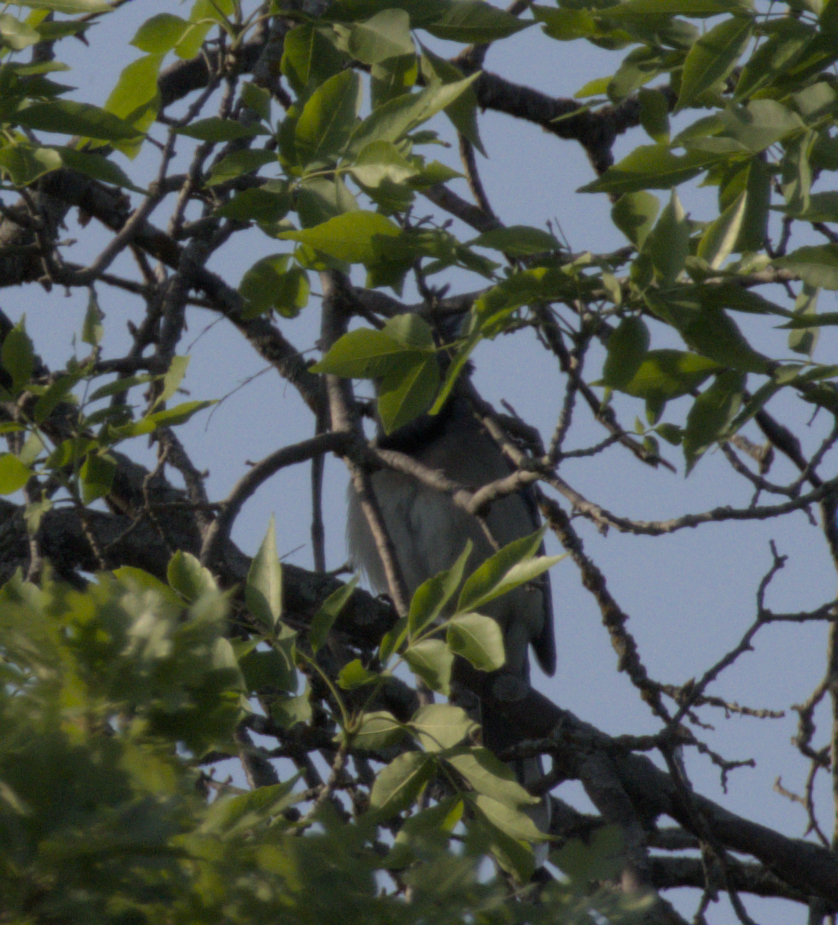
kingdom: Animalia
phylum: Chordata
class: Aves
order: Passeriformes
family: Corvidae
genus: Cyanocitta
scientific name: Cyanocitta cristata
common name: Blue jay
